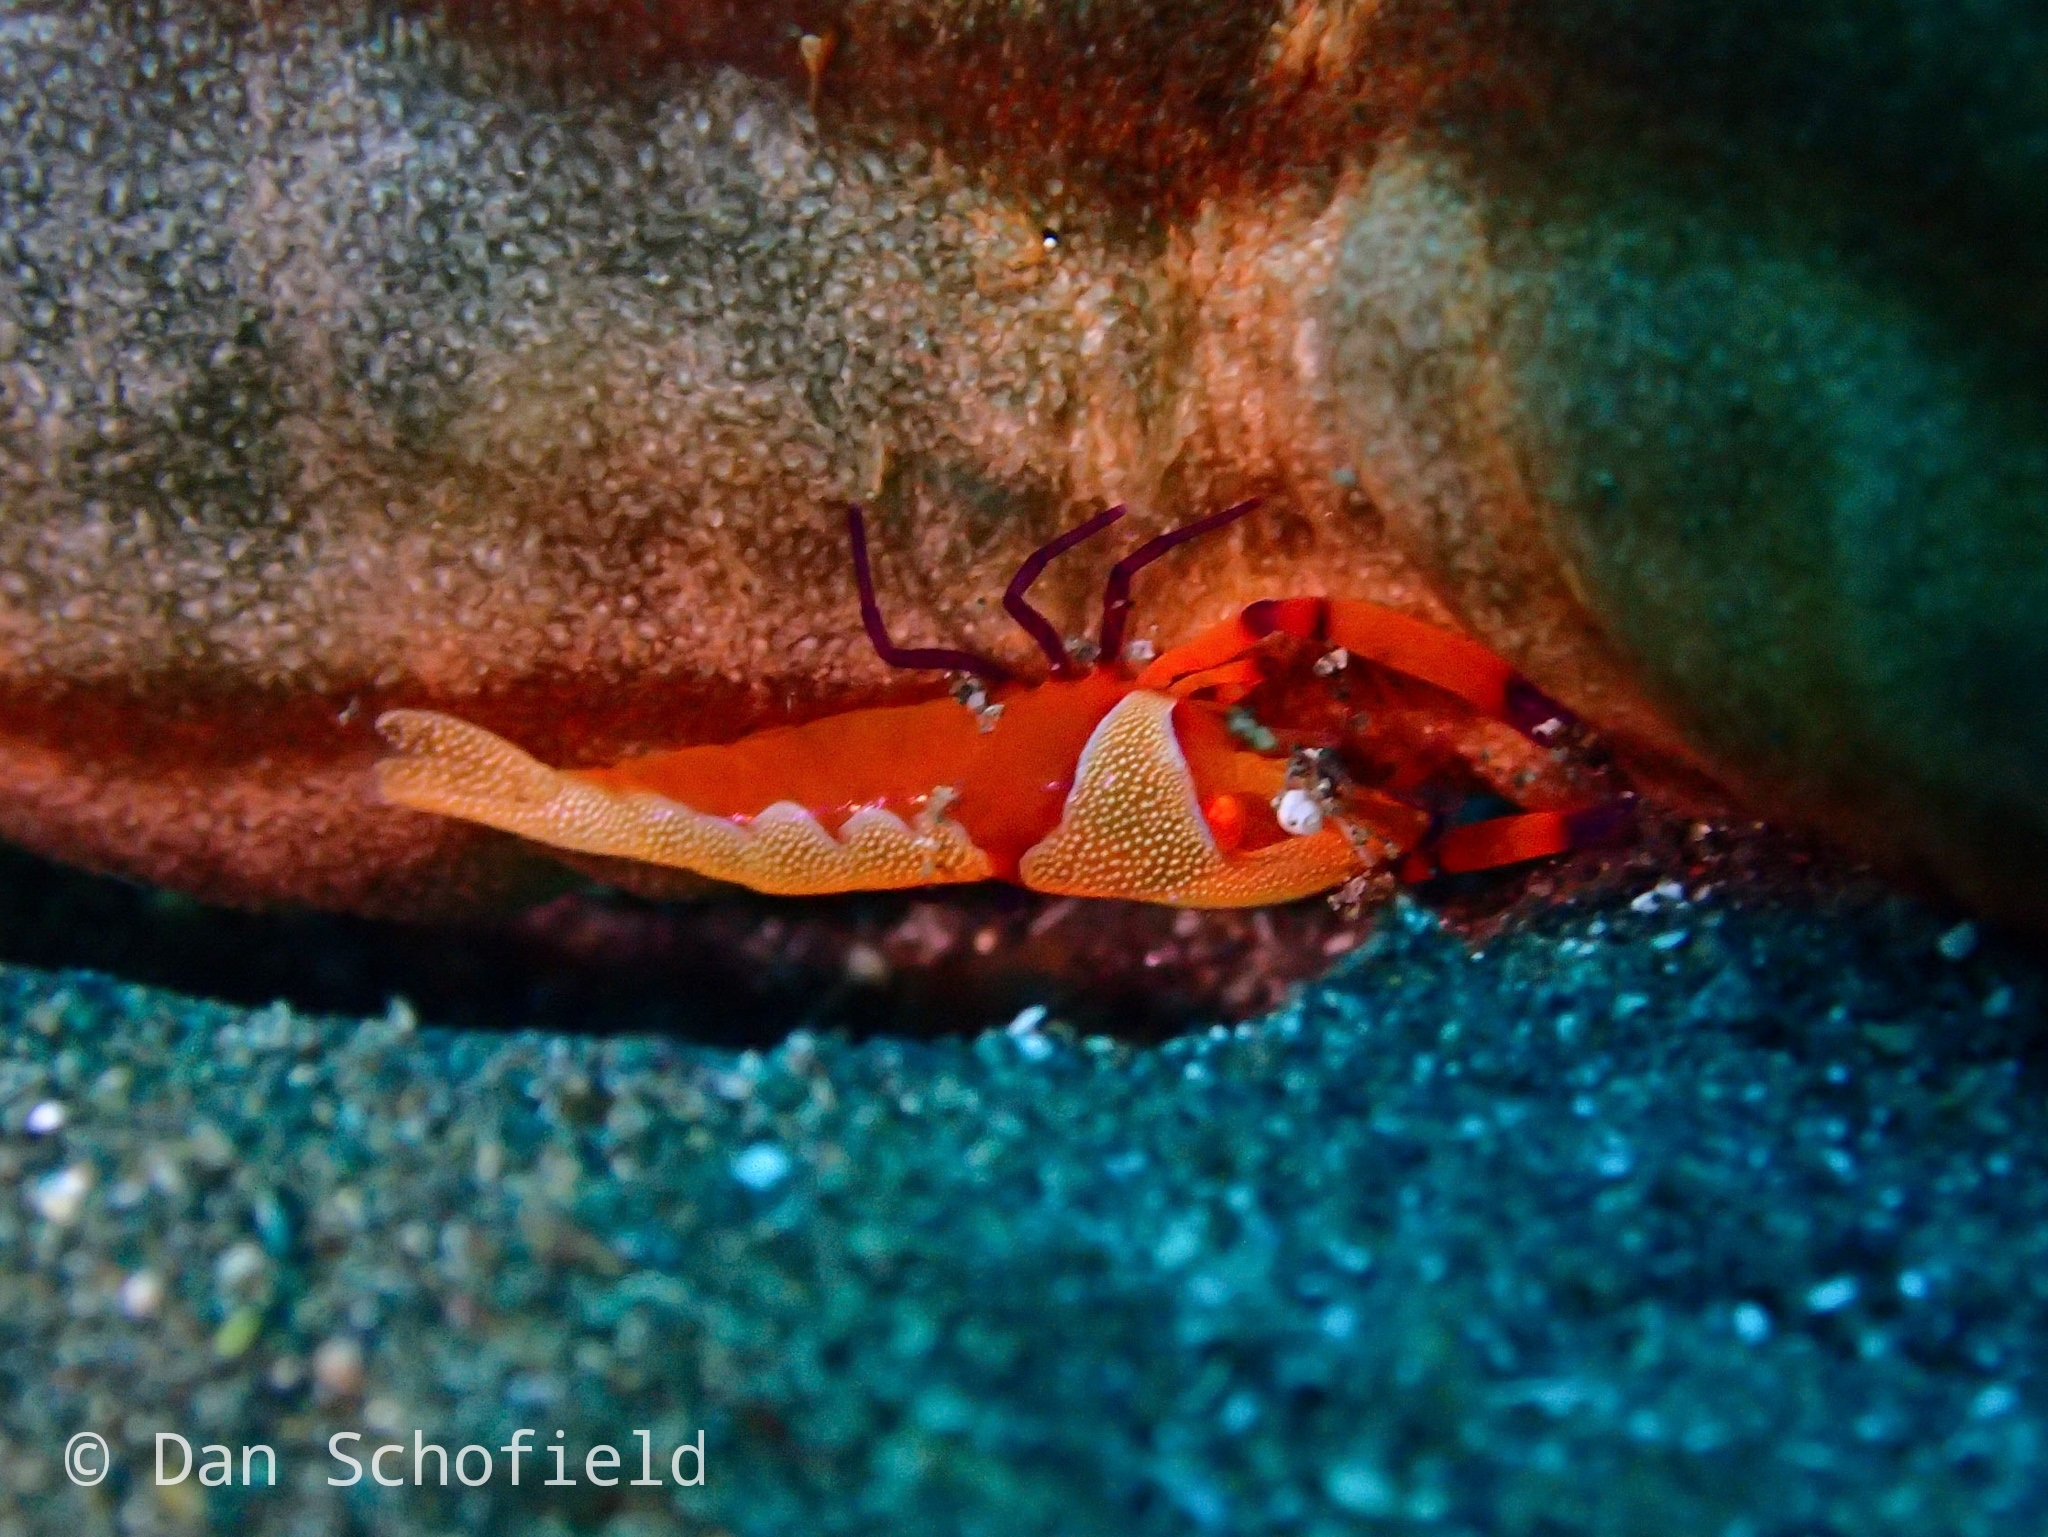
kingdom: Animalia
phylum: Arthropoda
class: Malacostraca
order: Decapoda
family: Palaemonidae
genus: Periclimenes
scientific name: Periclimenes rex
